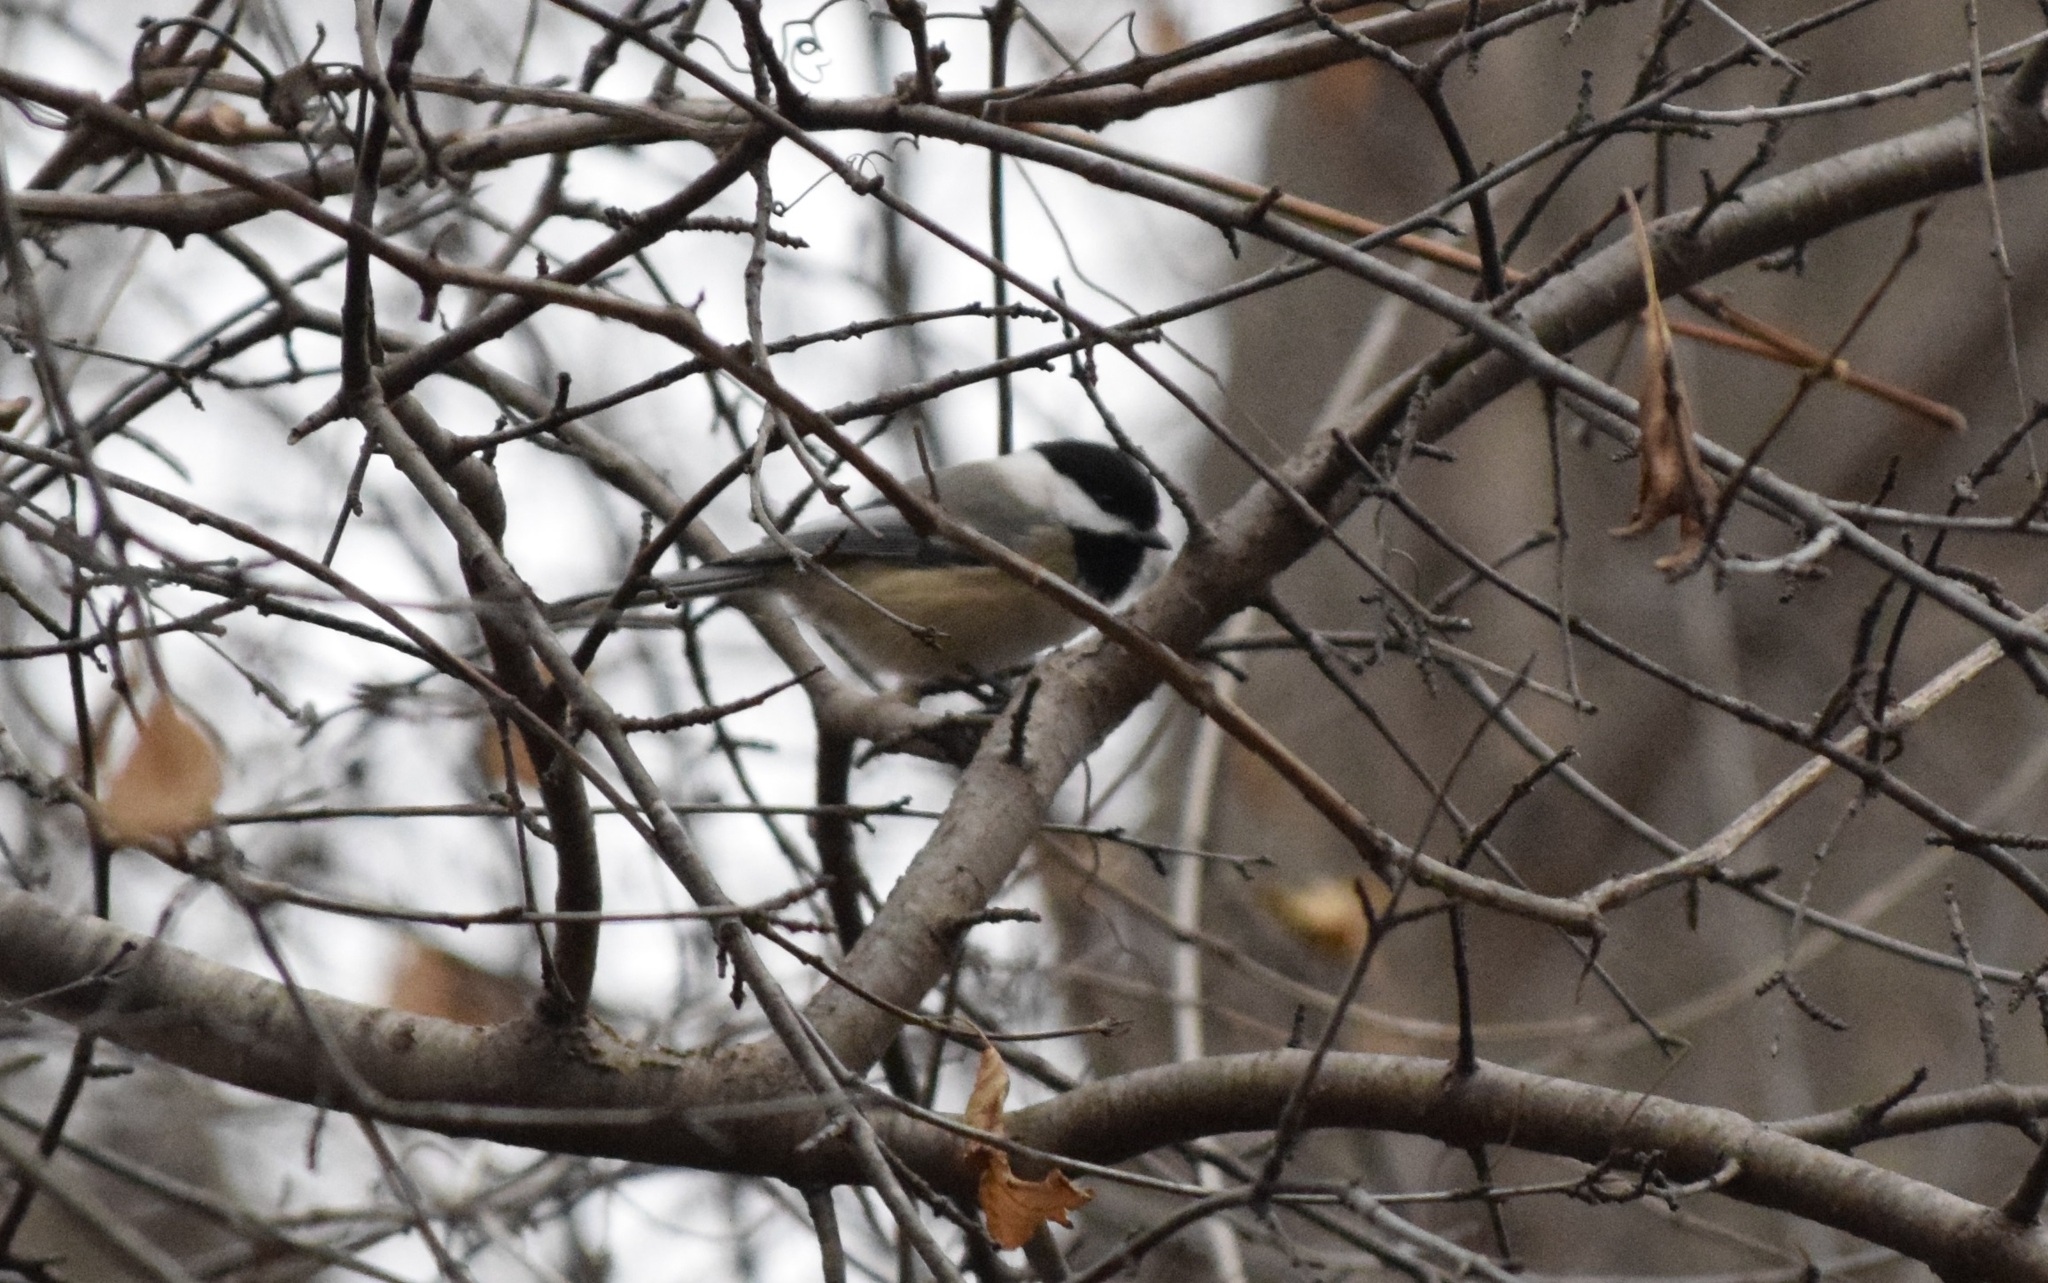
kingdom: Animalia
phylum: Chordata
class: Aves
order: Passeriformes
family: Paridae
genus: Poecile
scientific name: Poecile atricapillus
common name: Black-capped chickadee
